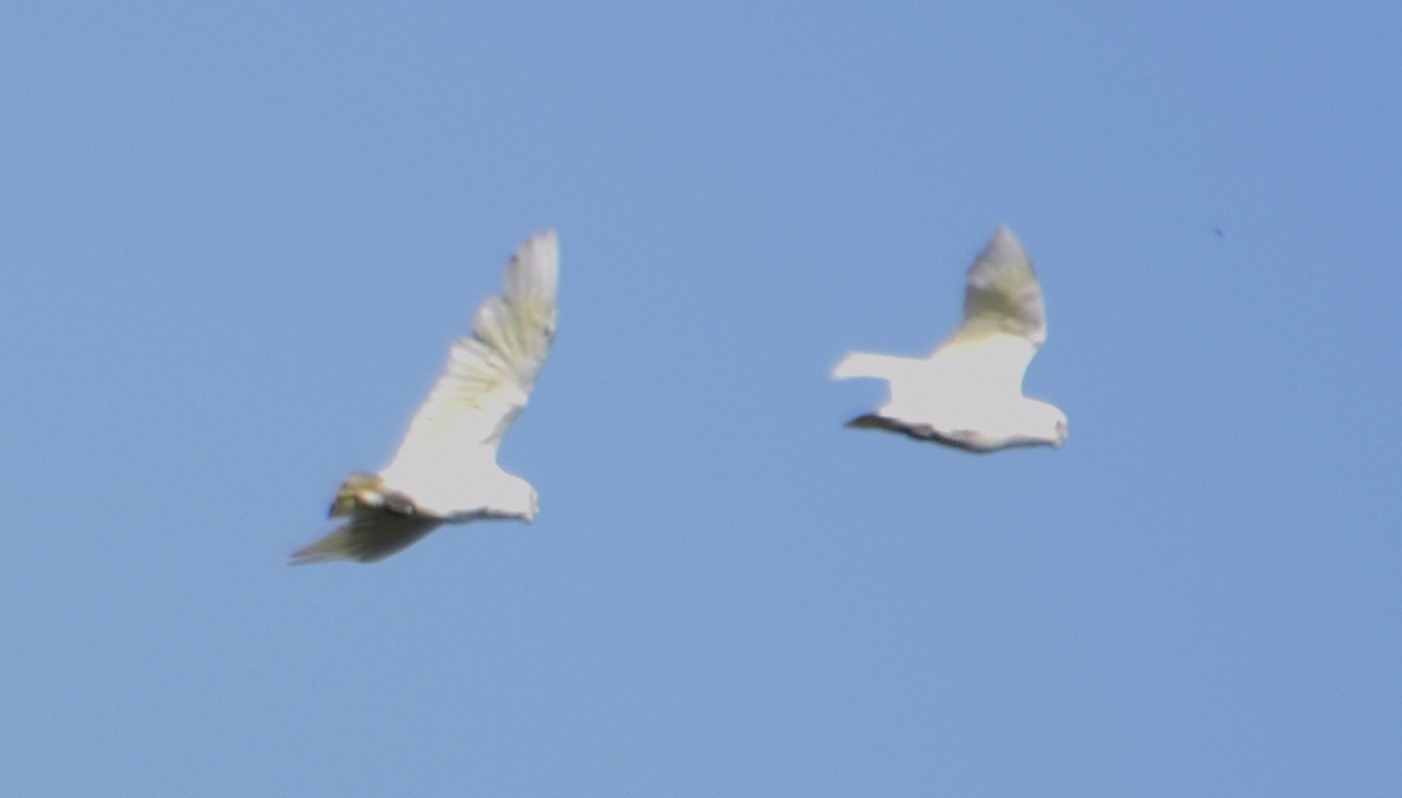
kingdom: Animalia
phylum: Chordata
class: Aves
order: Psittaciformes
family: Psittacidae
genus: Cacatua
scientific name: Cacatua sanguinea
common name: Little corella
